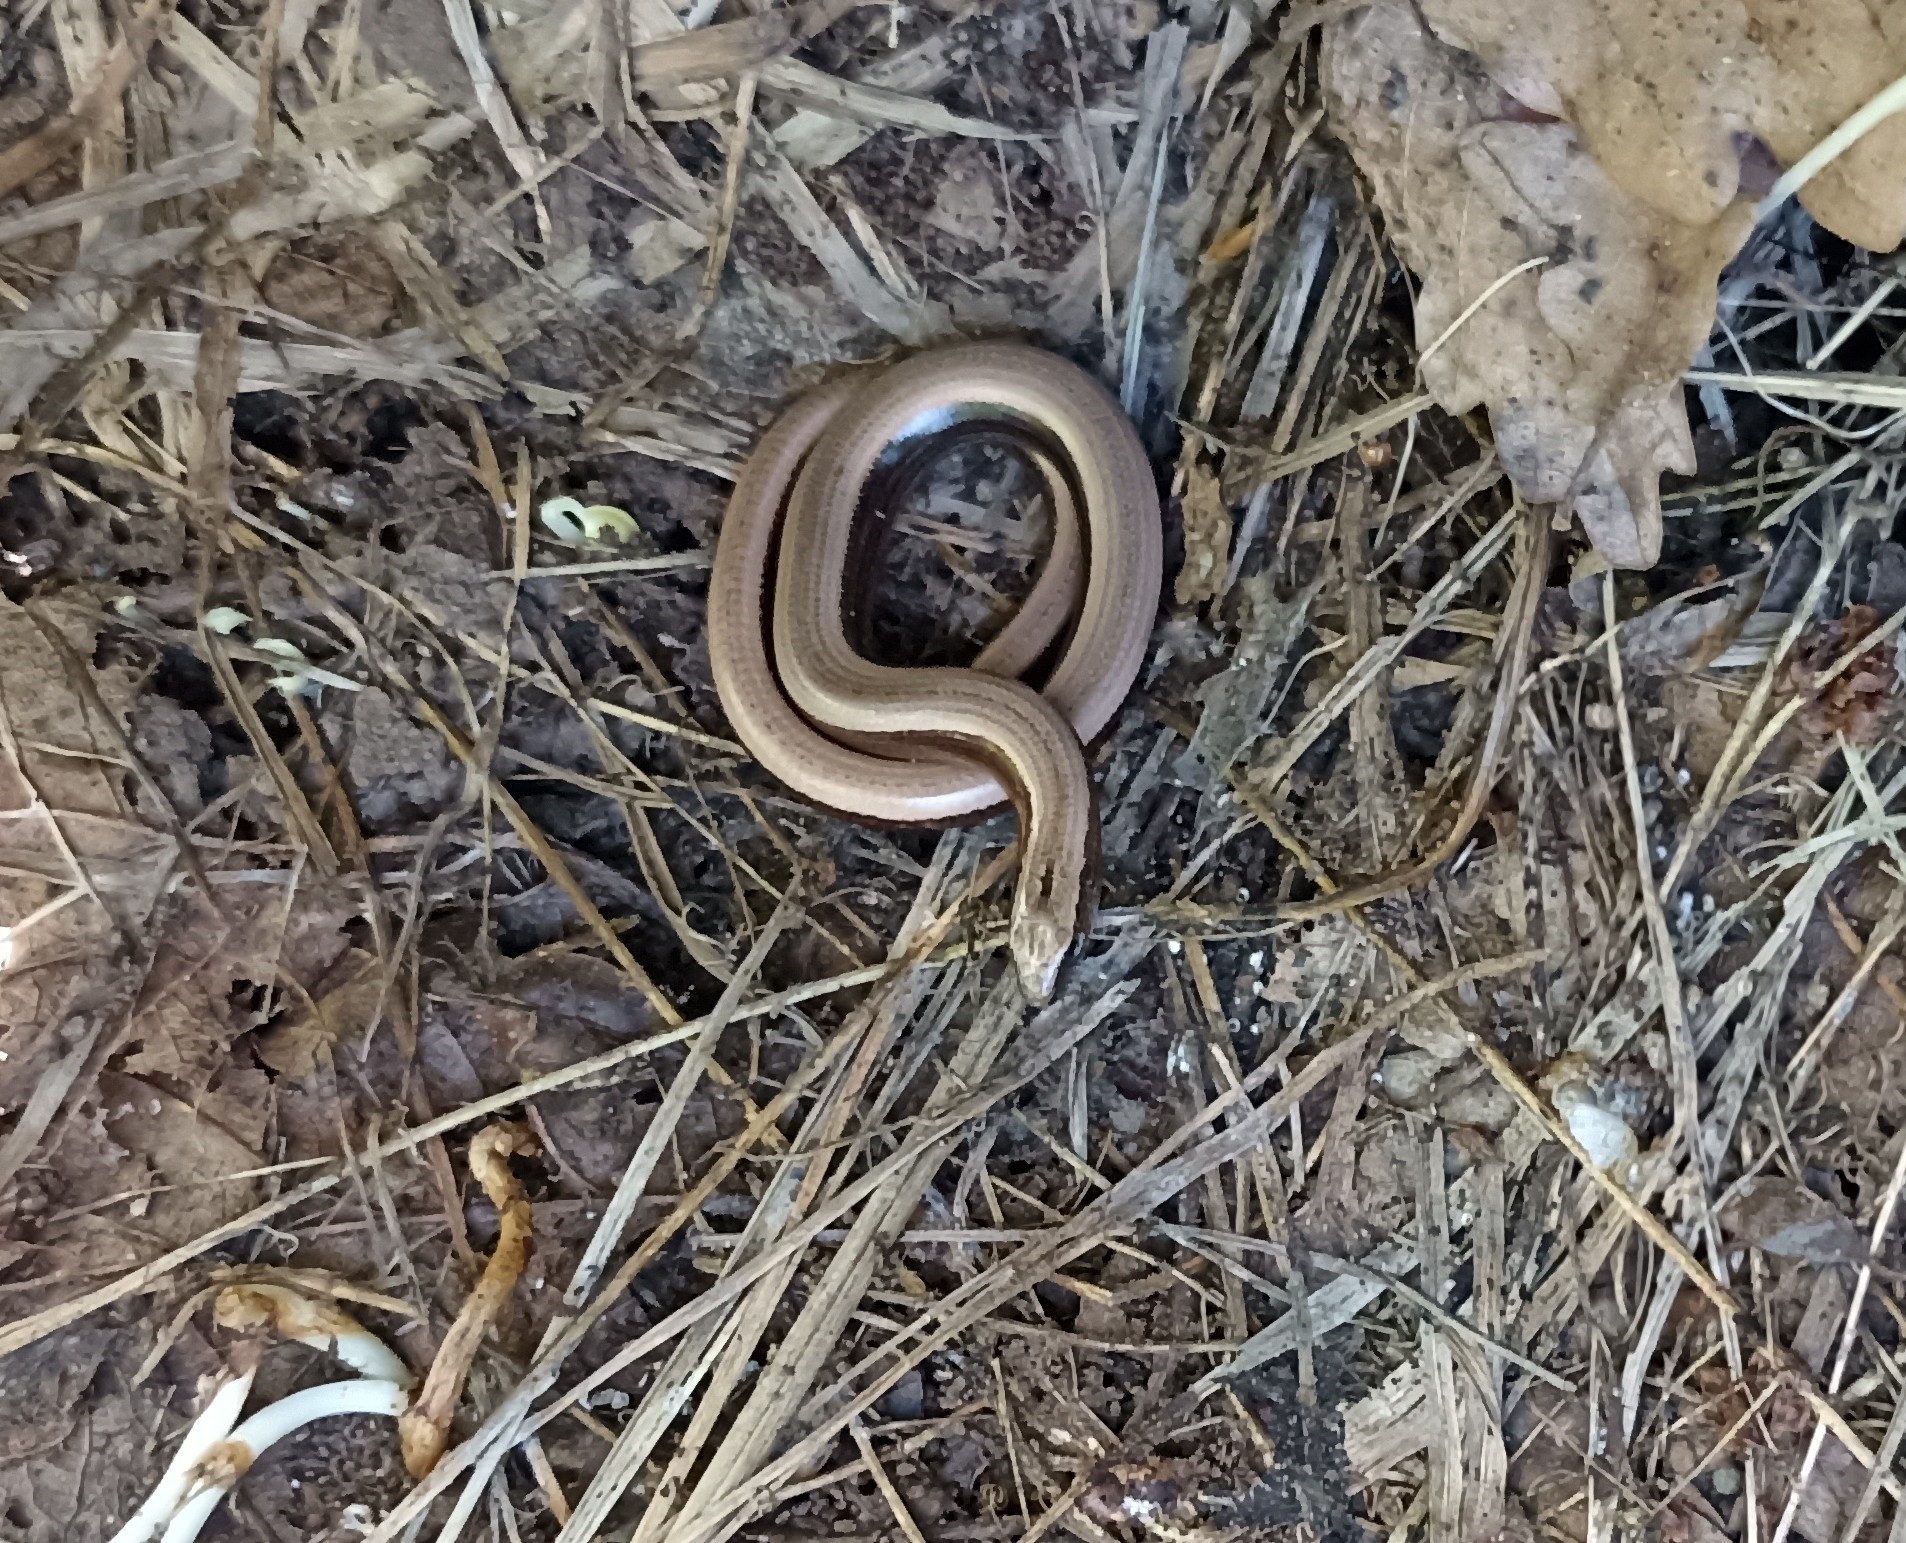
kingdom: Animalia
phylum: Chordata
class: Squamata
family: Anguidae
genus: Anguis
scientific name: Anguis fragilis
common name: Slow worm
